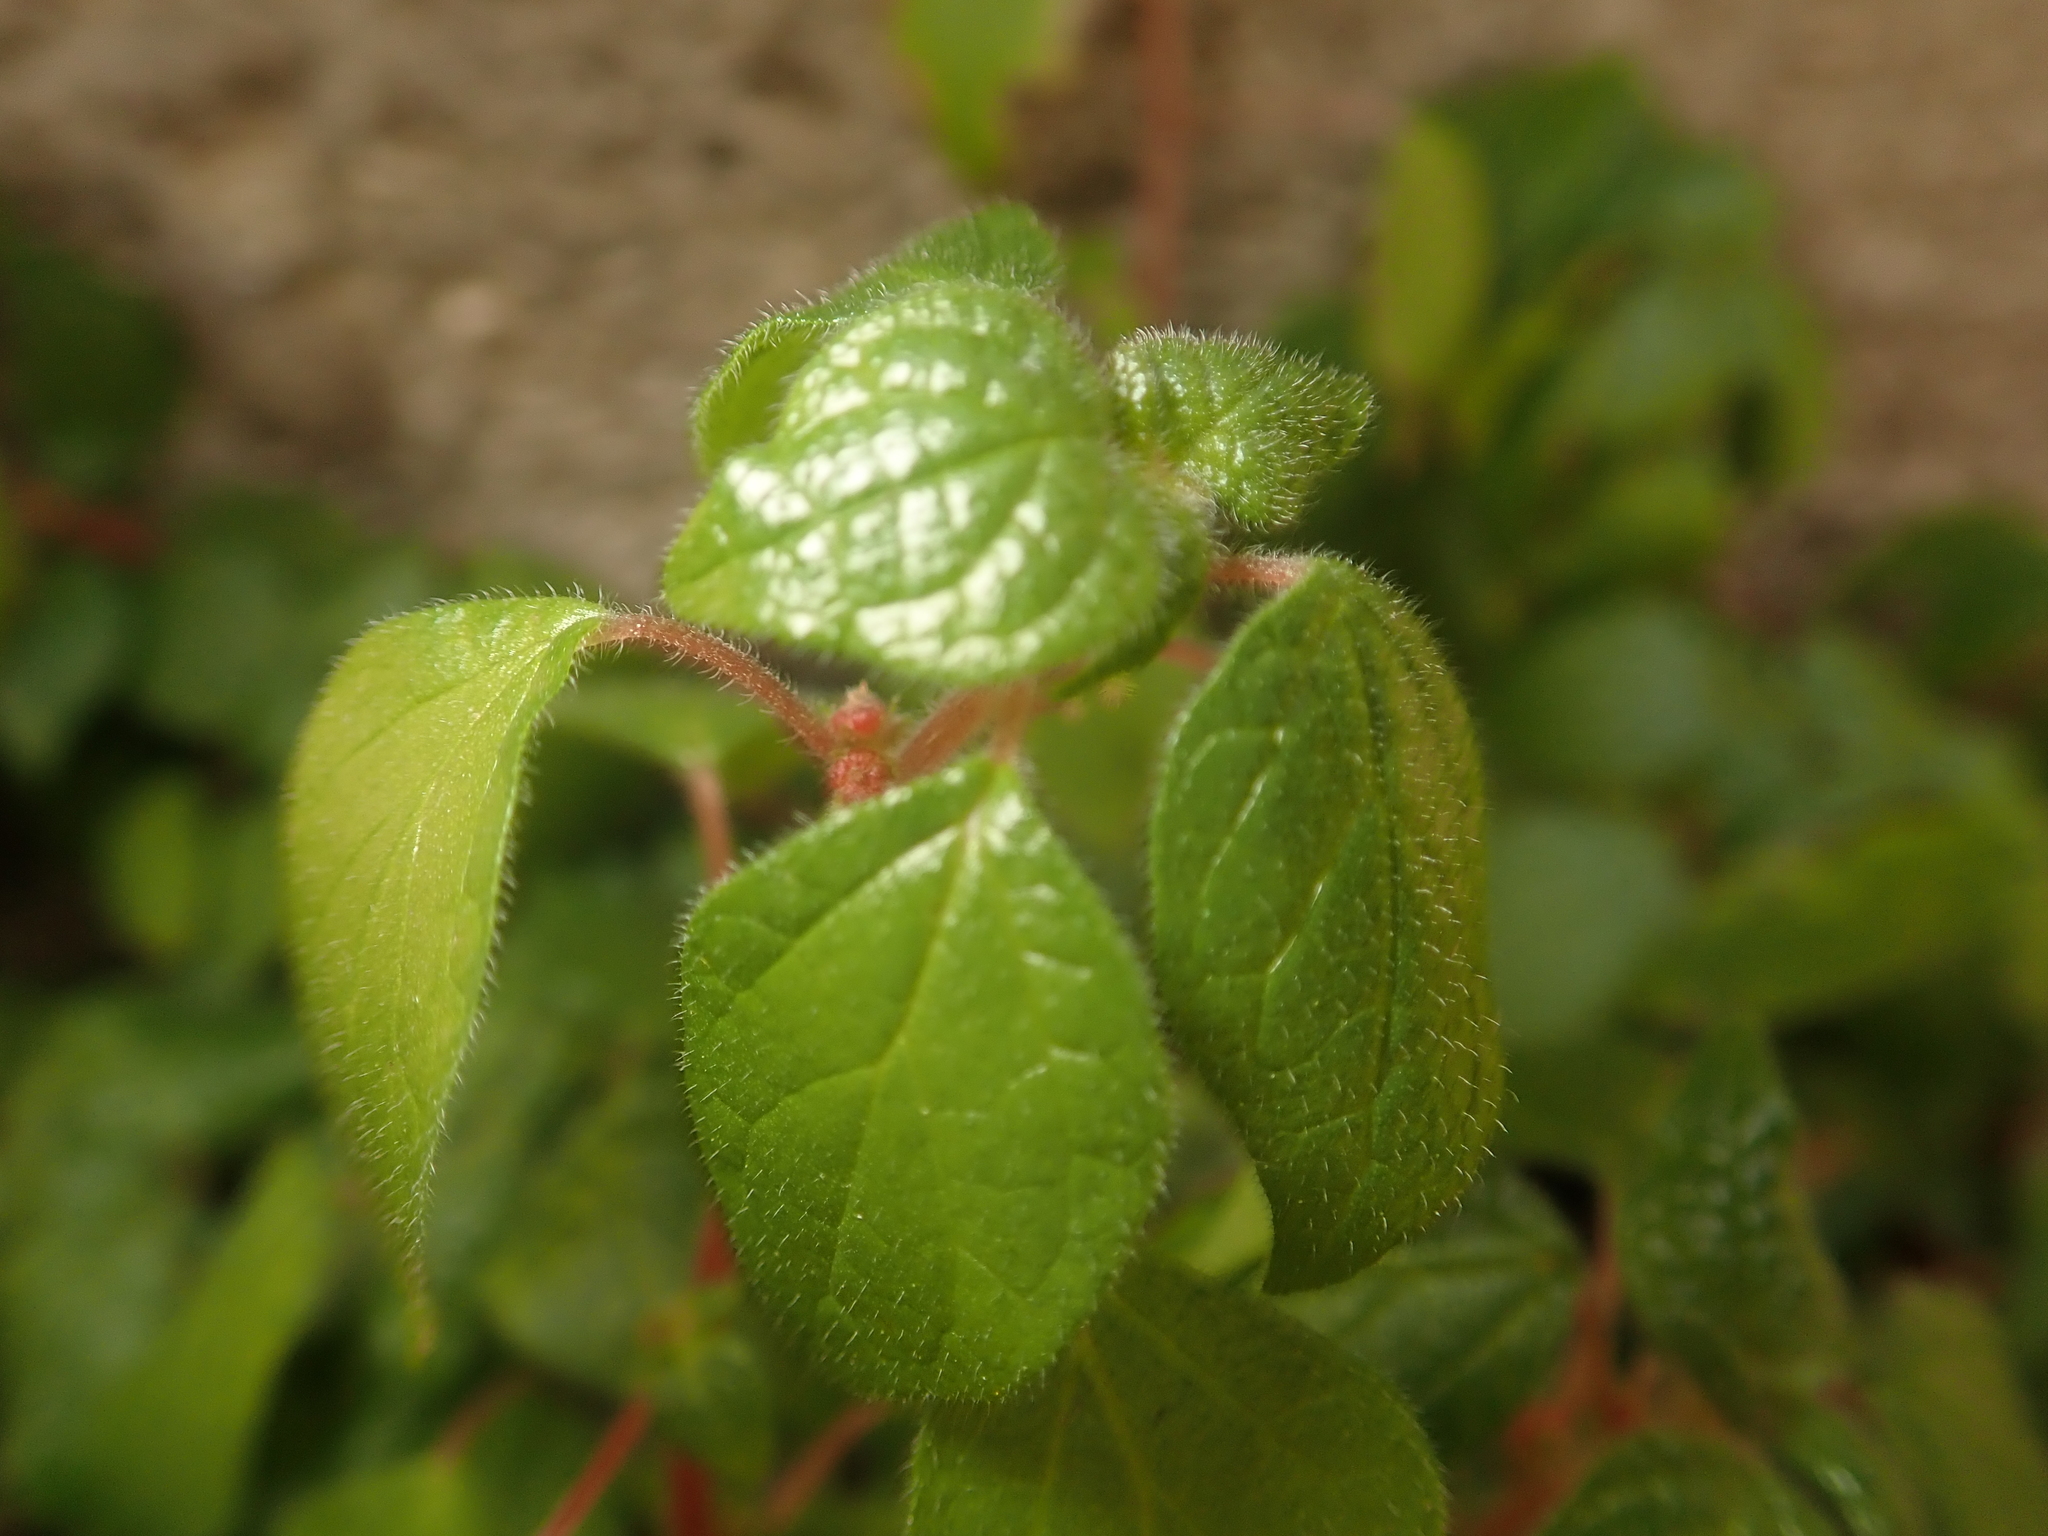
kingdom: Plantae
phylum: Tracheophyta
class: Magnoliopsida
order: Rosales
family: Urticaceae
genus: Parietaria
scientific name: Parietaria judaica
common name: Pellitory-of-the-wall
